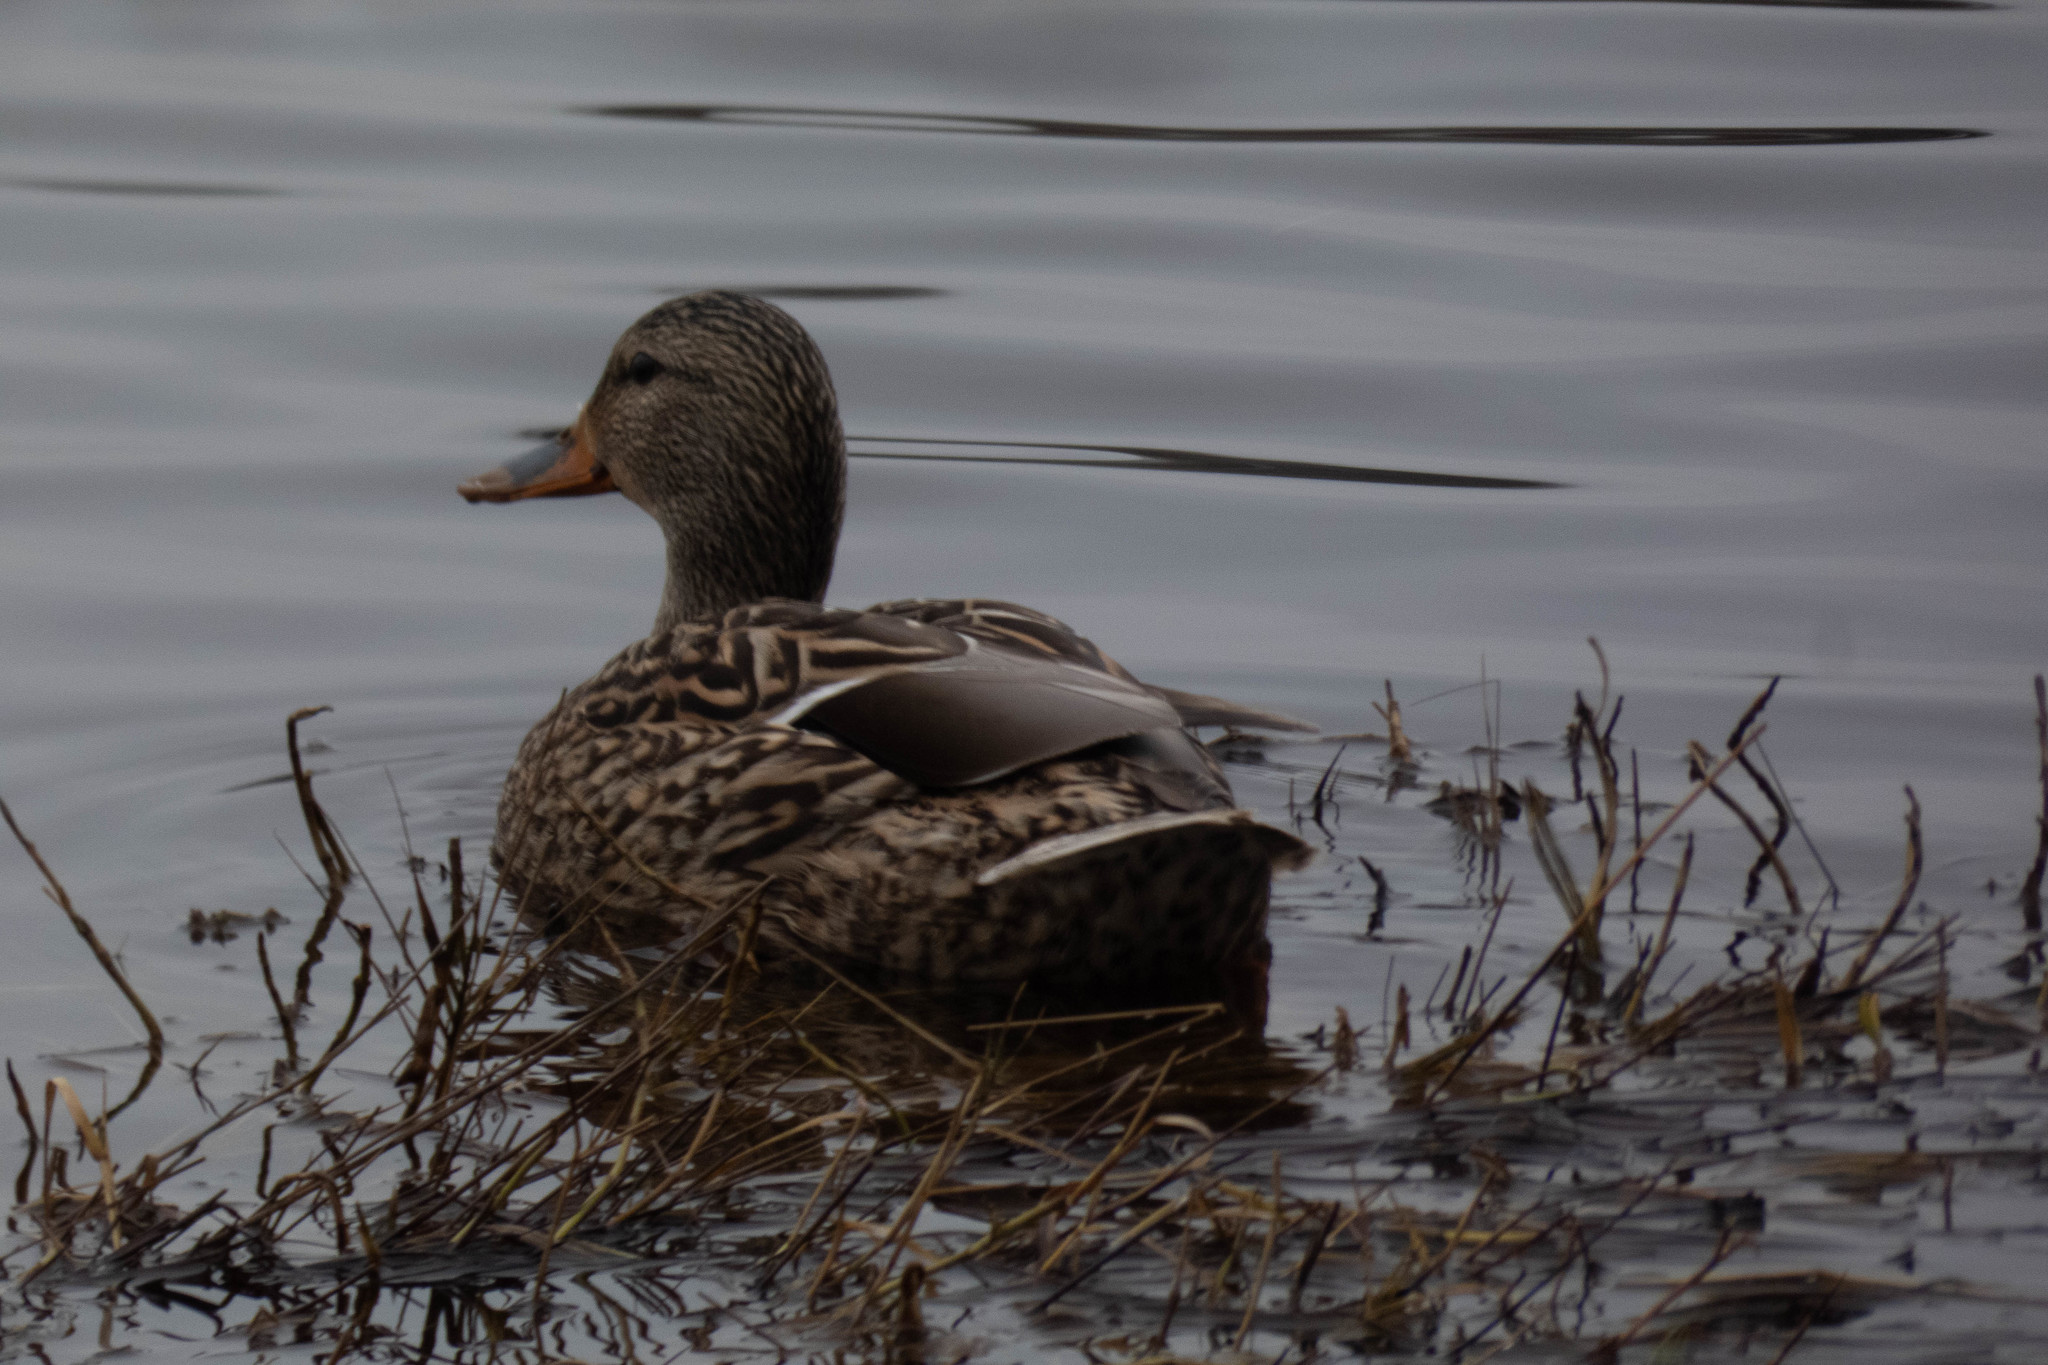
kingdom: Animalia
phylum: Chordata
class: Aves
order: Anseriformes
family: Anatidae
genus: Anas
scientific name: Anas platyrhynchos
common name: Mallard
